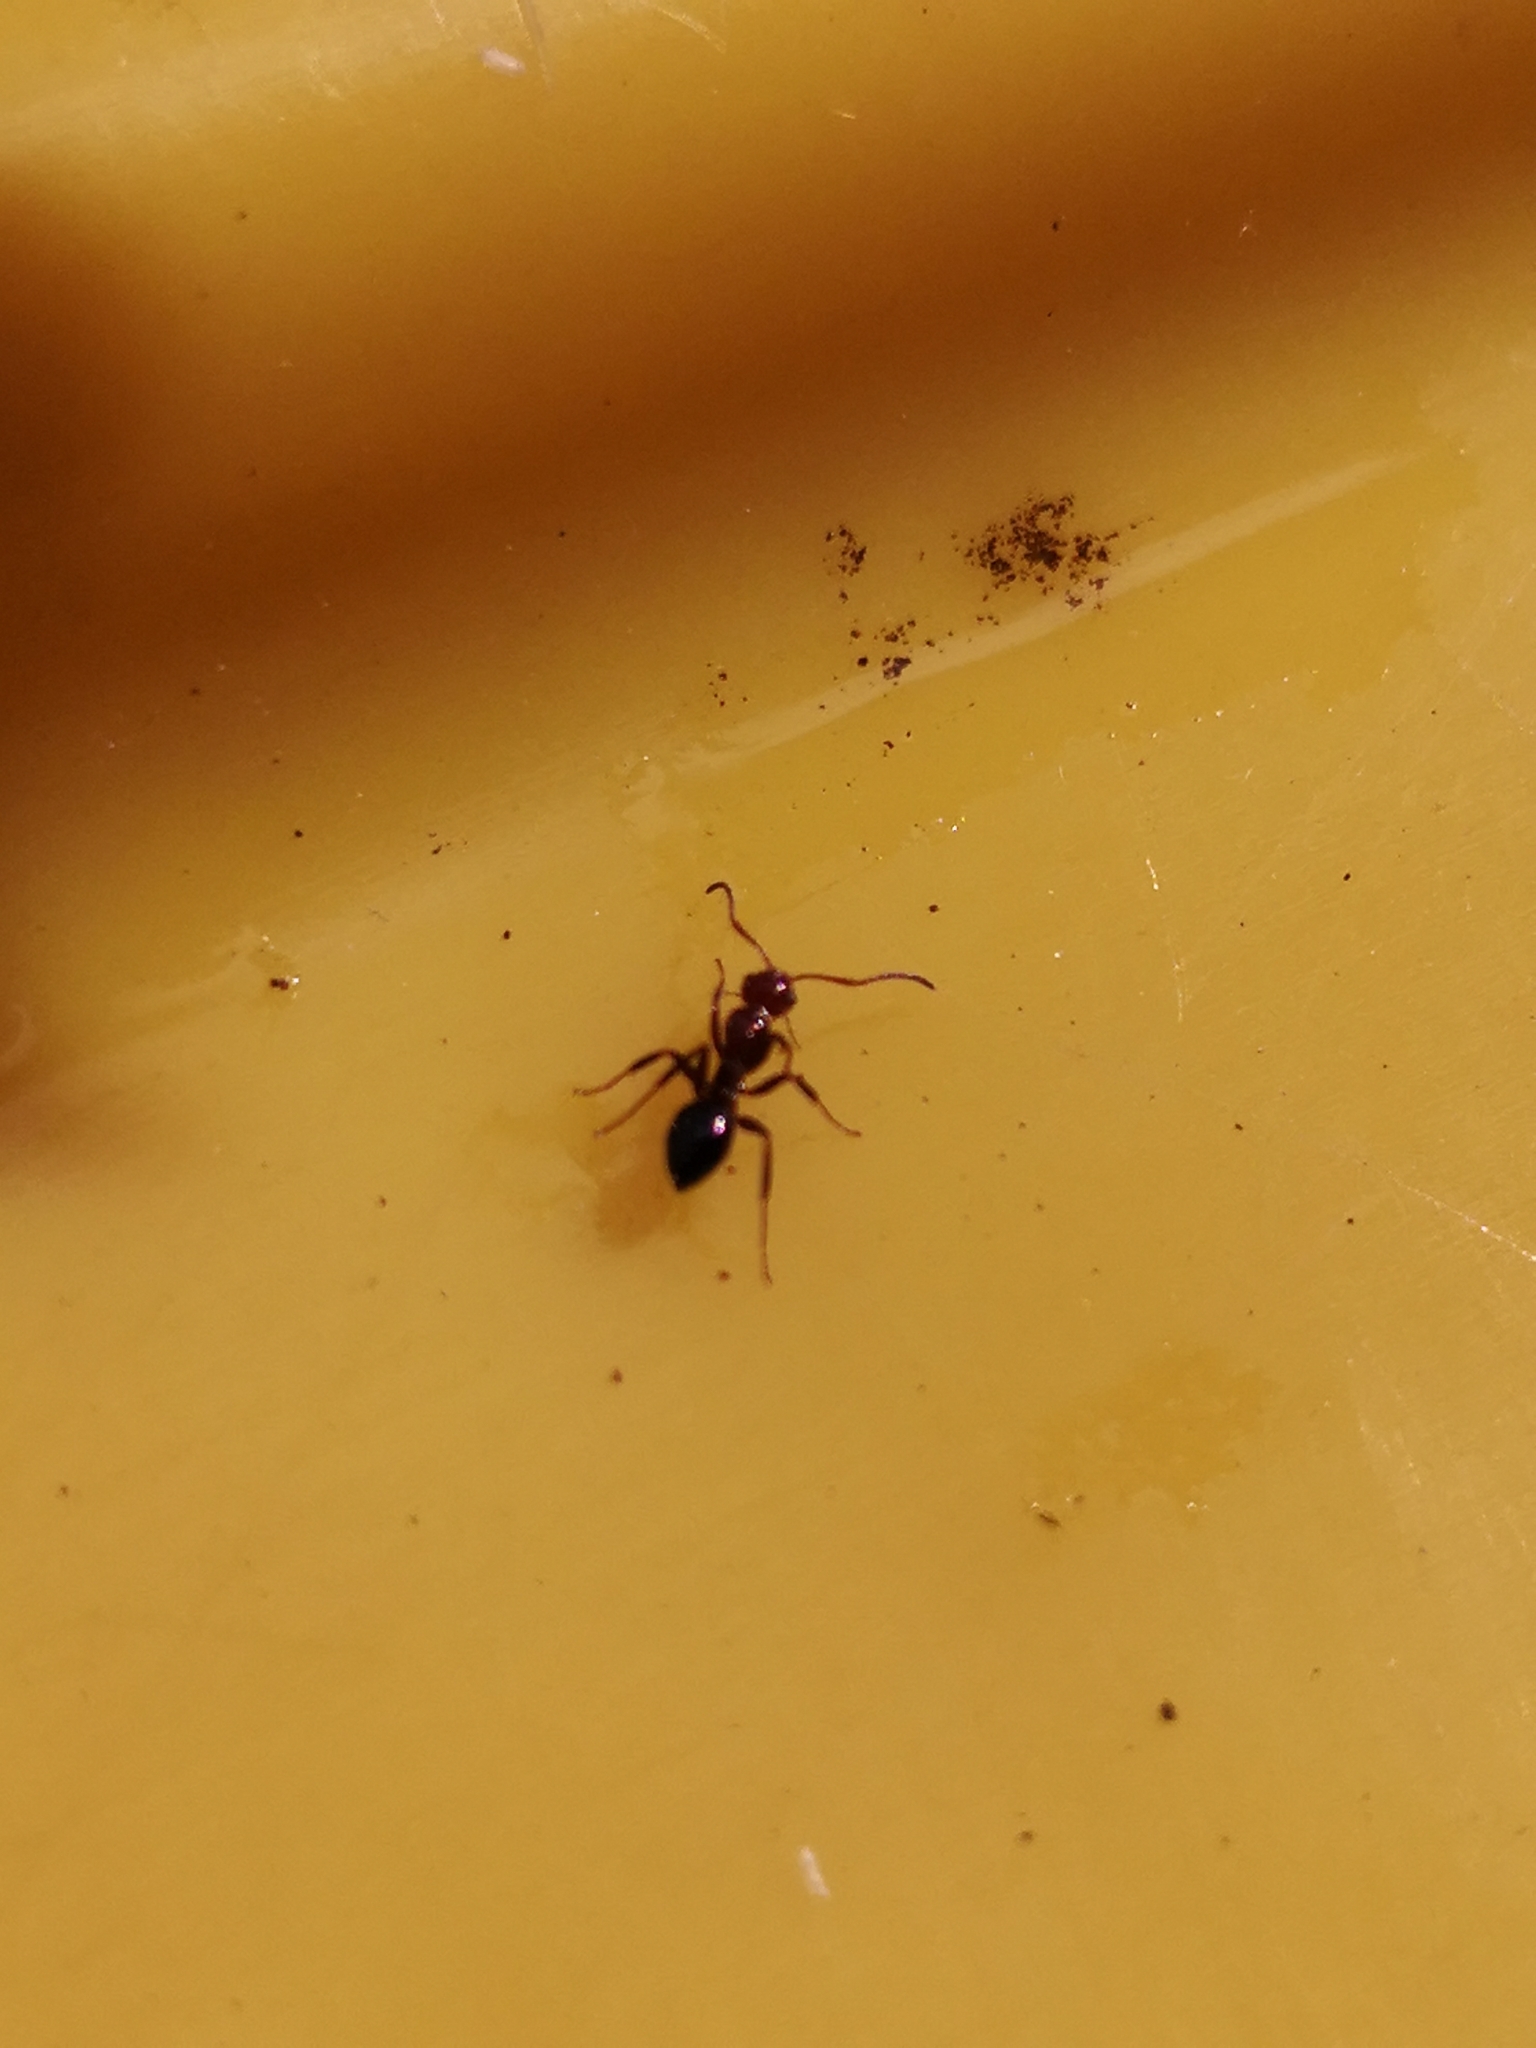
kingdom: Animalia
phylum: Arthropoda
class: Insecta
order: Hymenoptera
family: Formicidae
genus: Camponotus
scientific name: Camponotus lateralis
